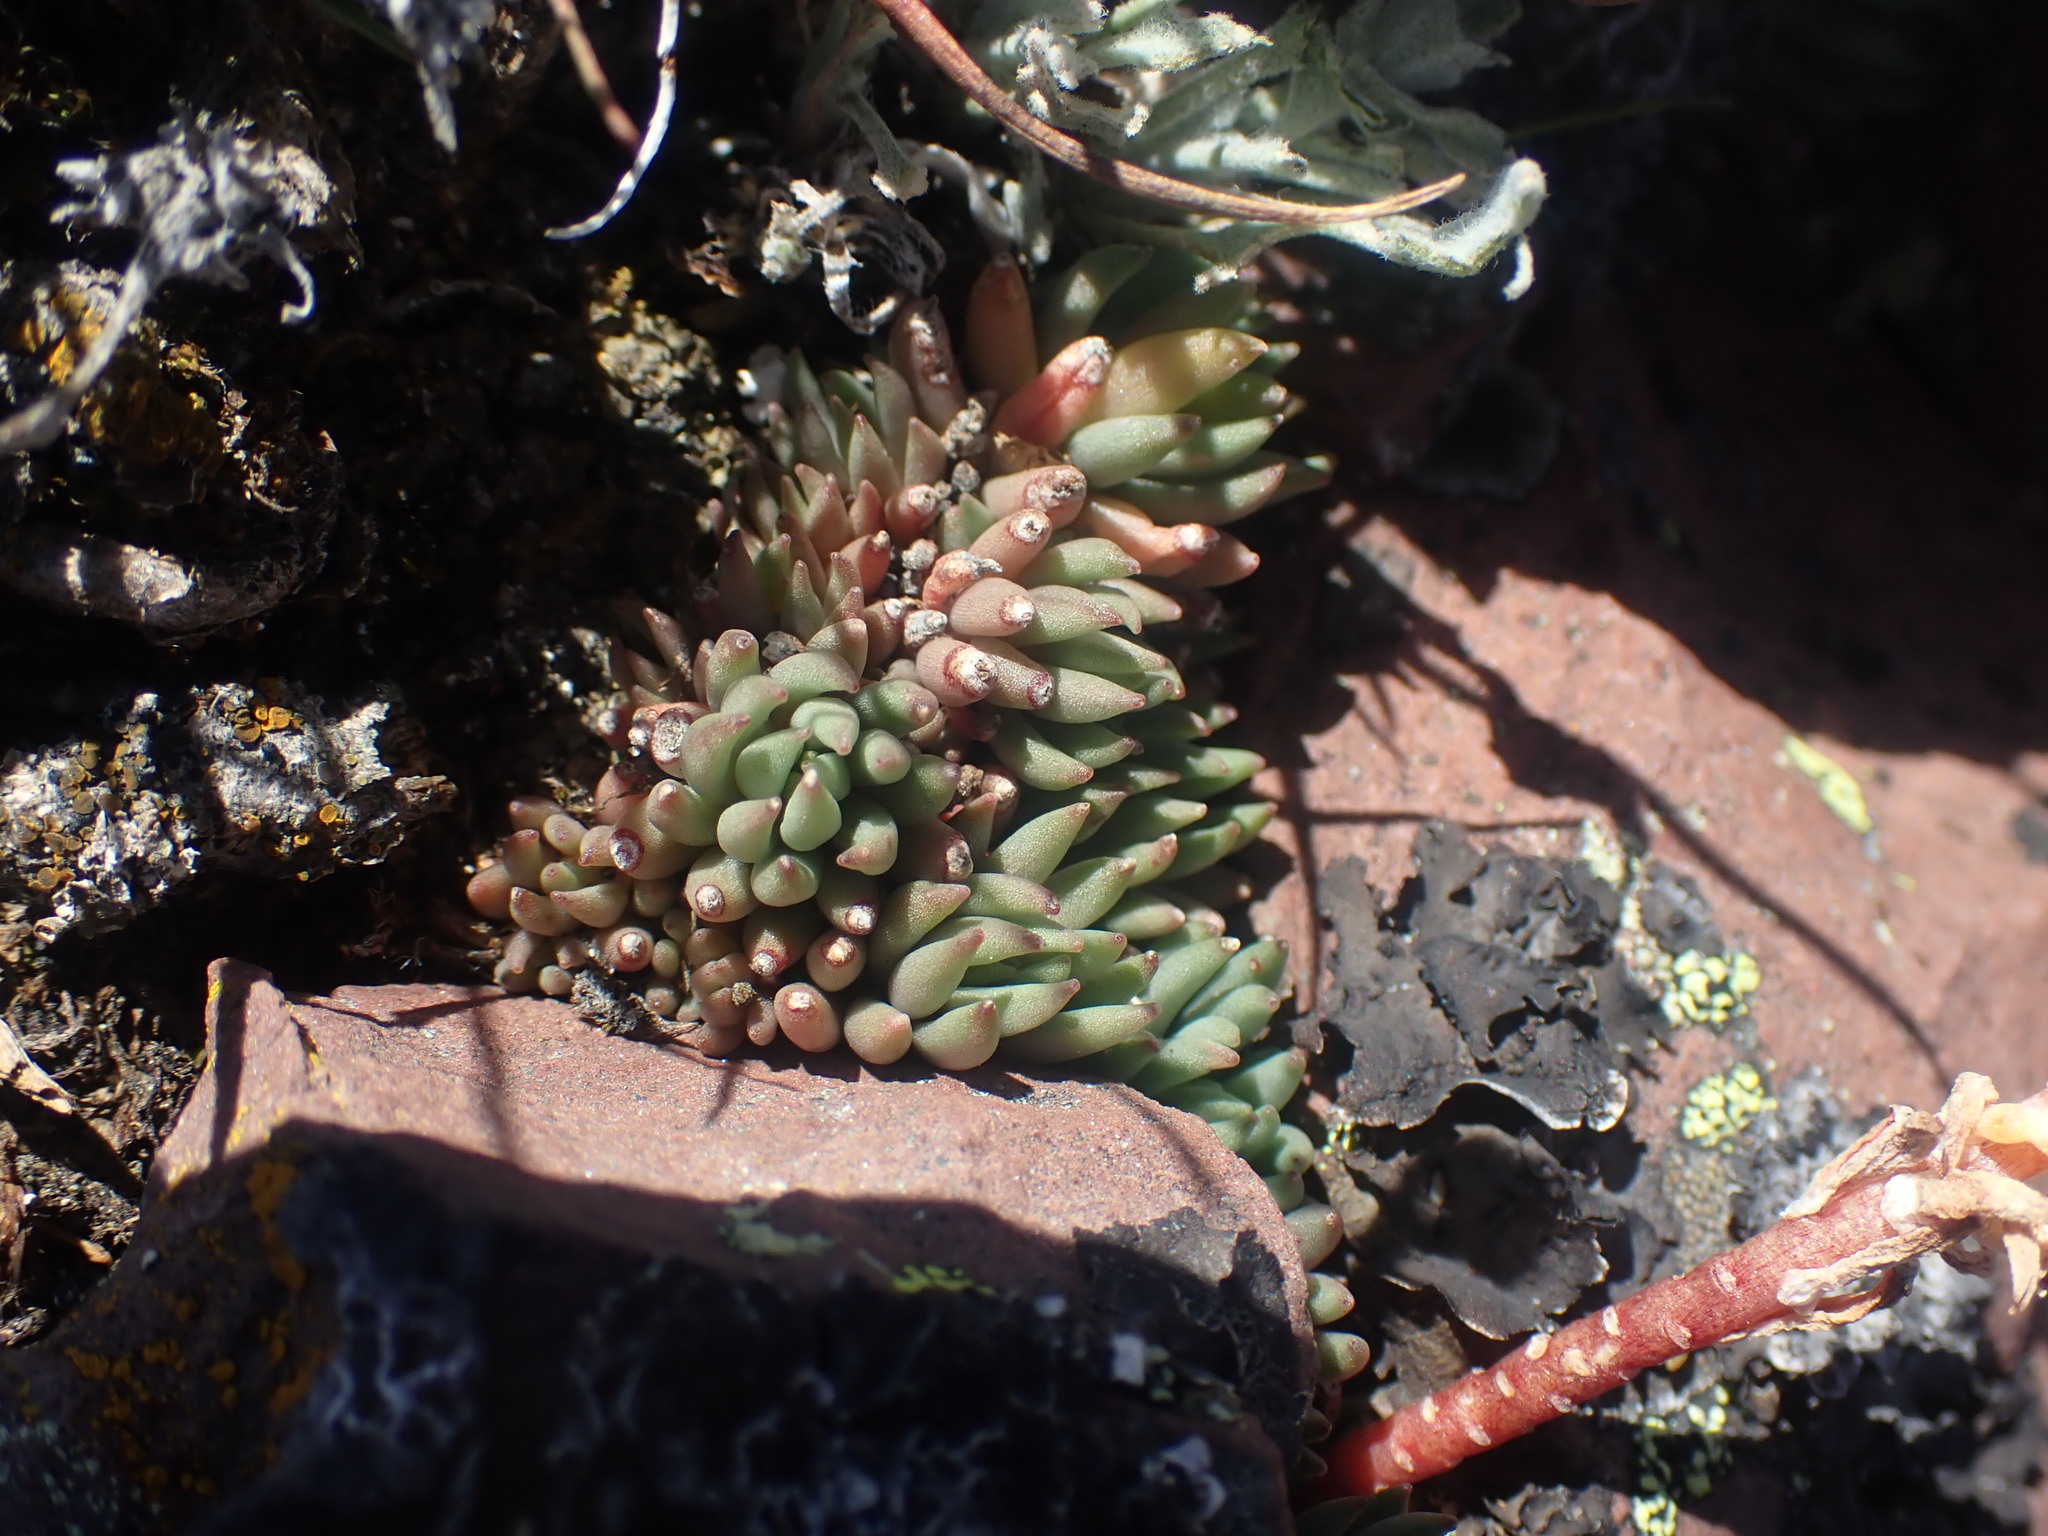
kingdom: Plantae
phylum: Tracheophyta
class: Magnoliopsida
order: Saxifragales
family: Crassulaceae
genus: Sedum
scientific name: Sedum lanceolatum
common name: Common stonecrop
